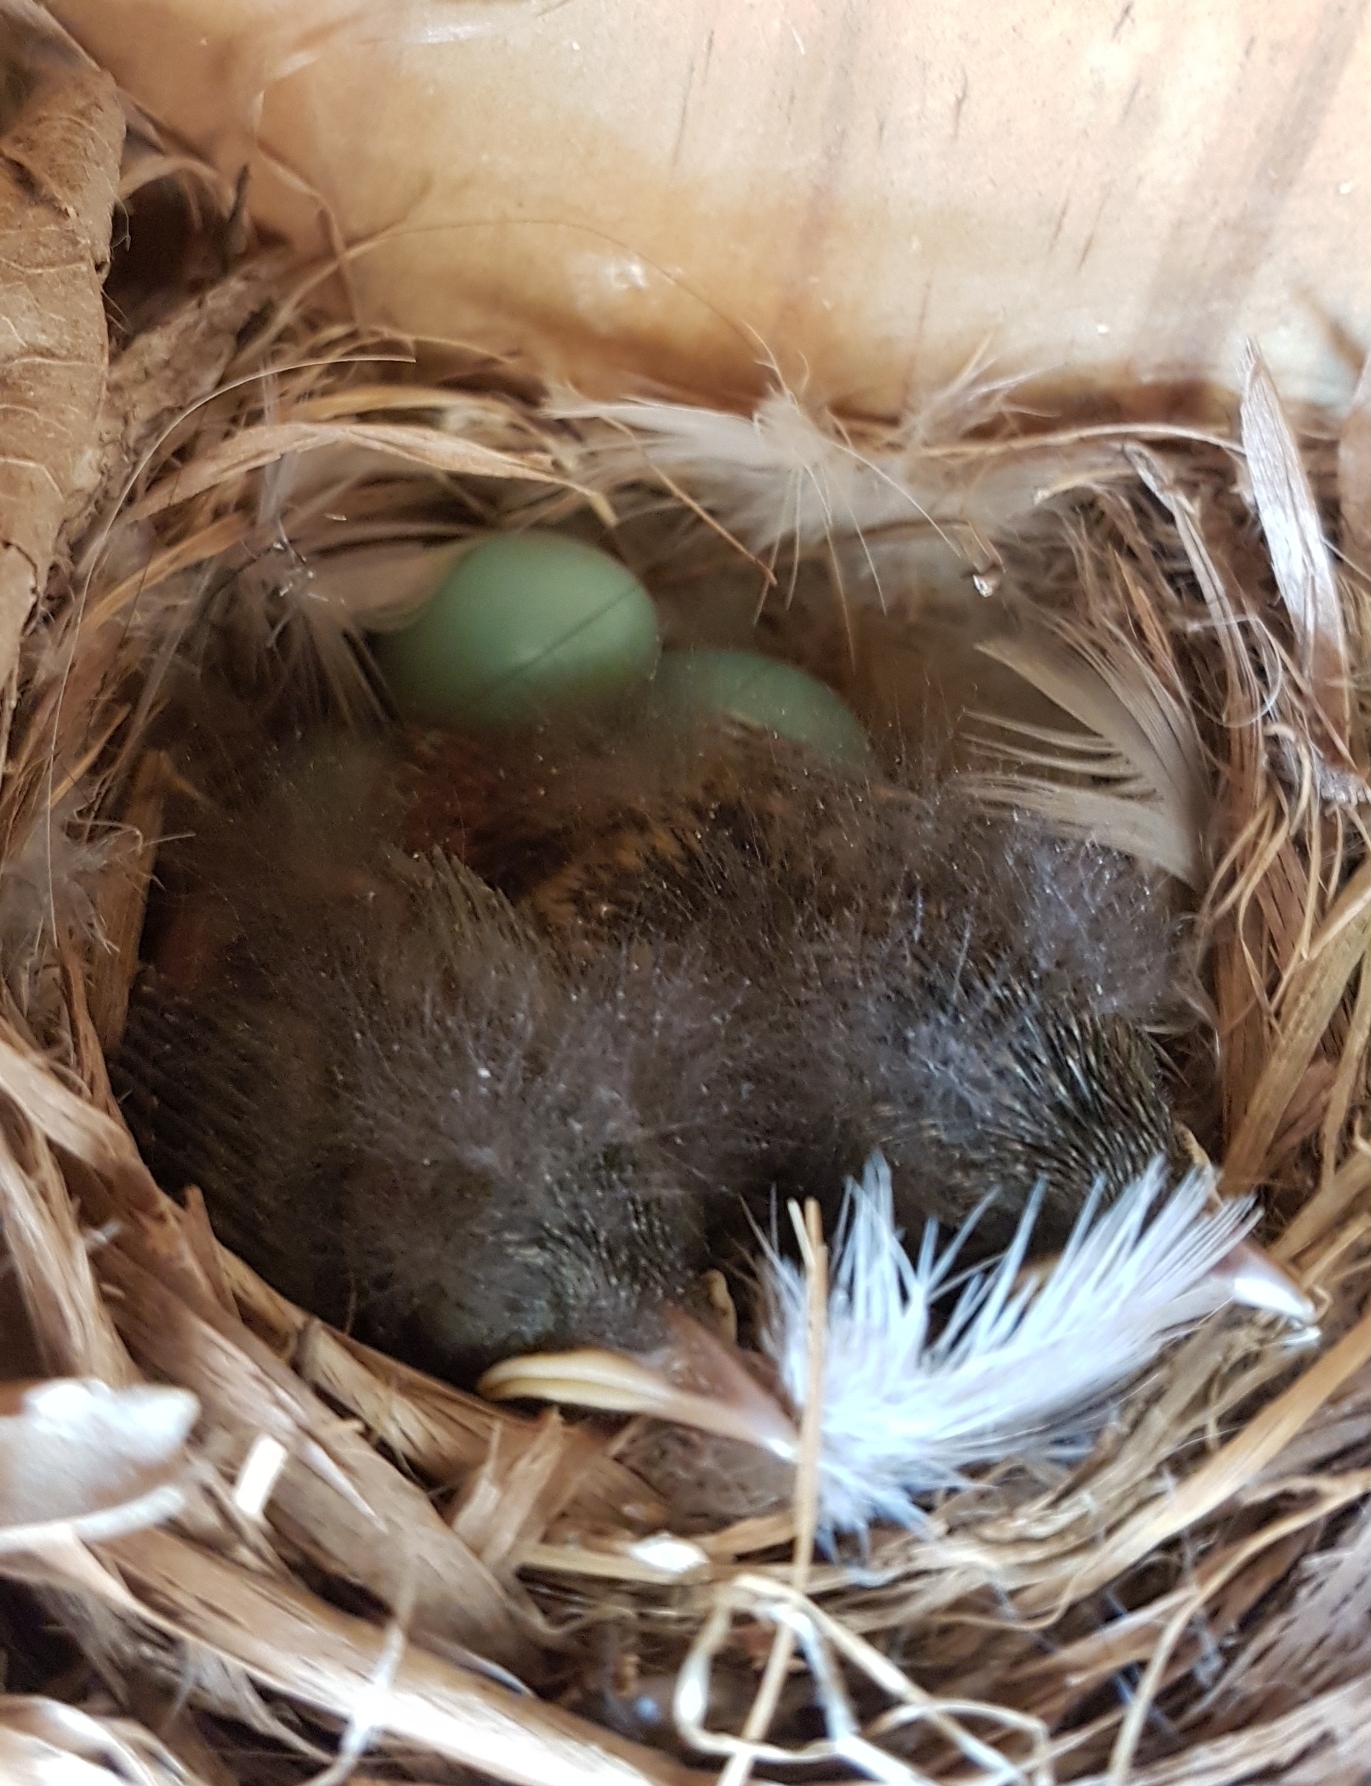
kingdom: Animalia
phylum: Chordata
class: Aves
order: Passeriformes
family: Muscicapidae
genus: Phoenicurus
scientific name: Phoenicurus phoenicurus
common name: Common redstart
